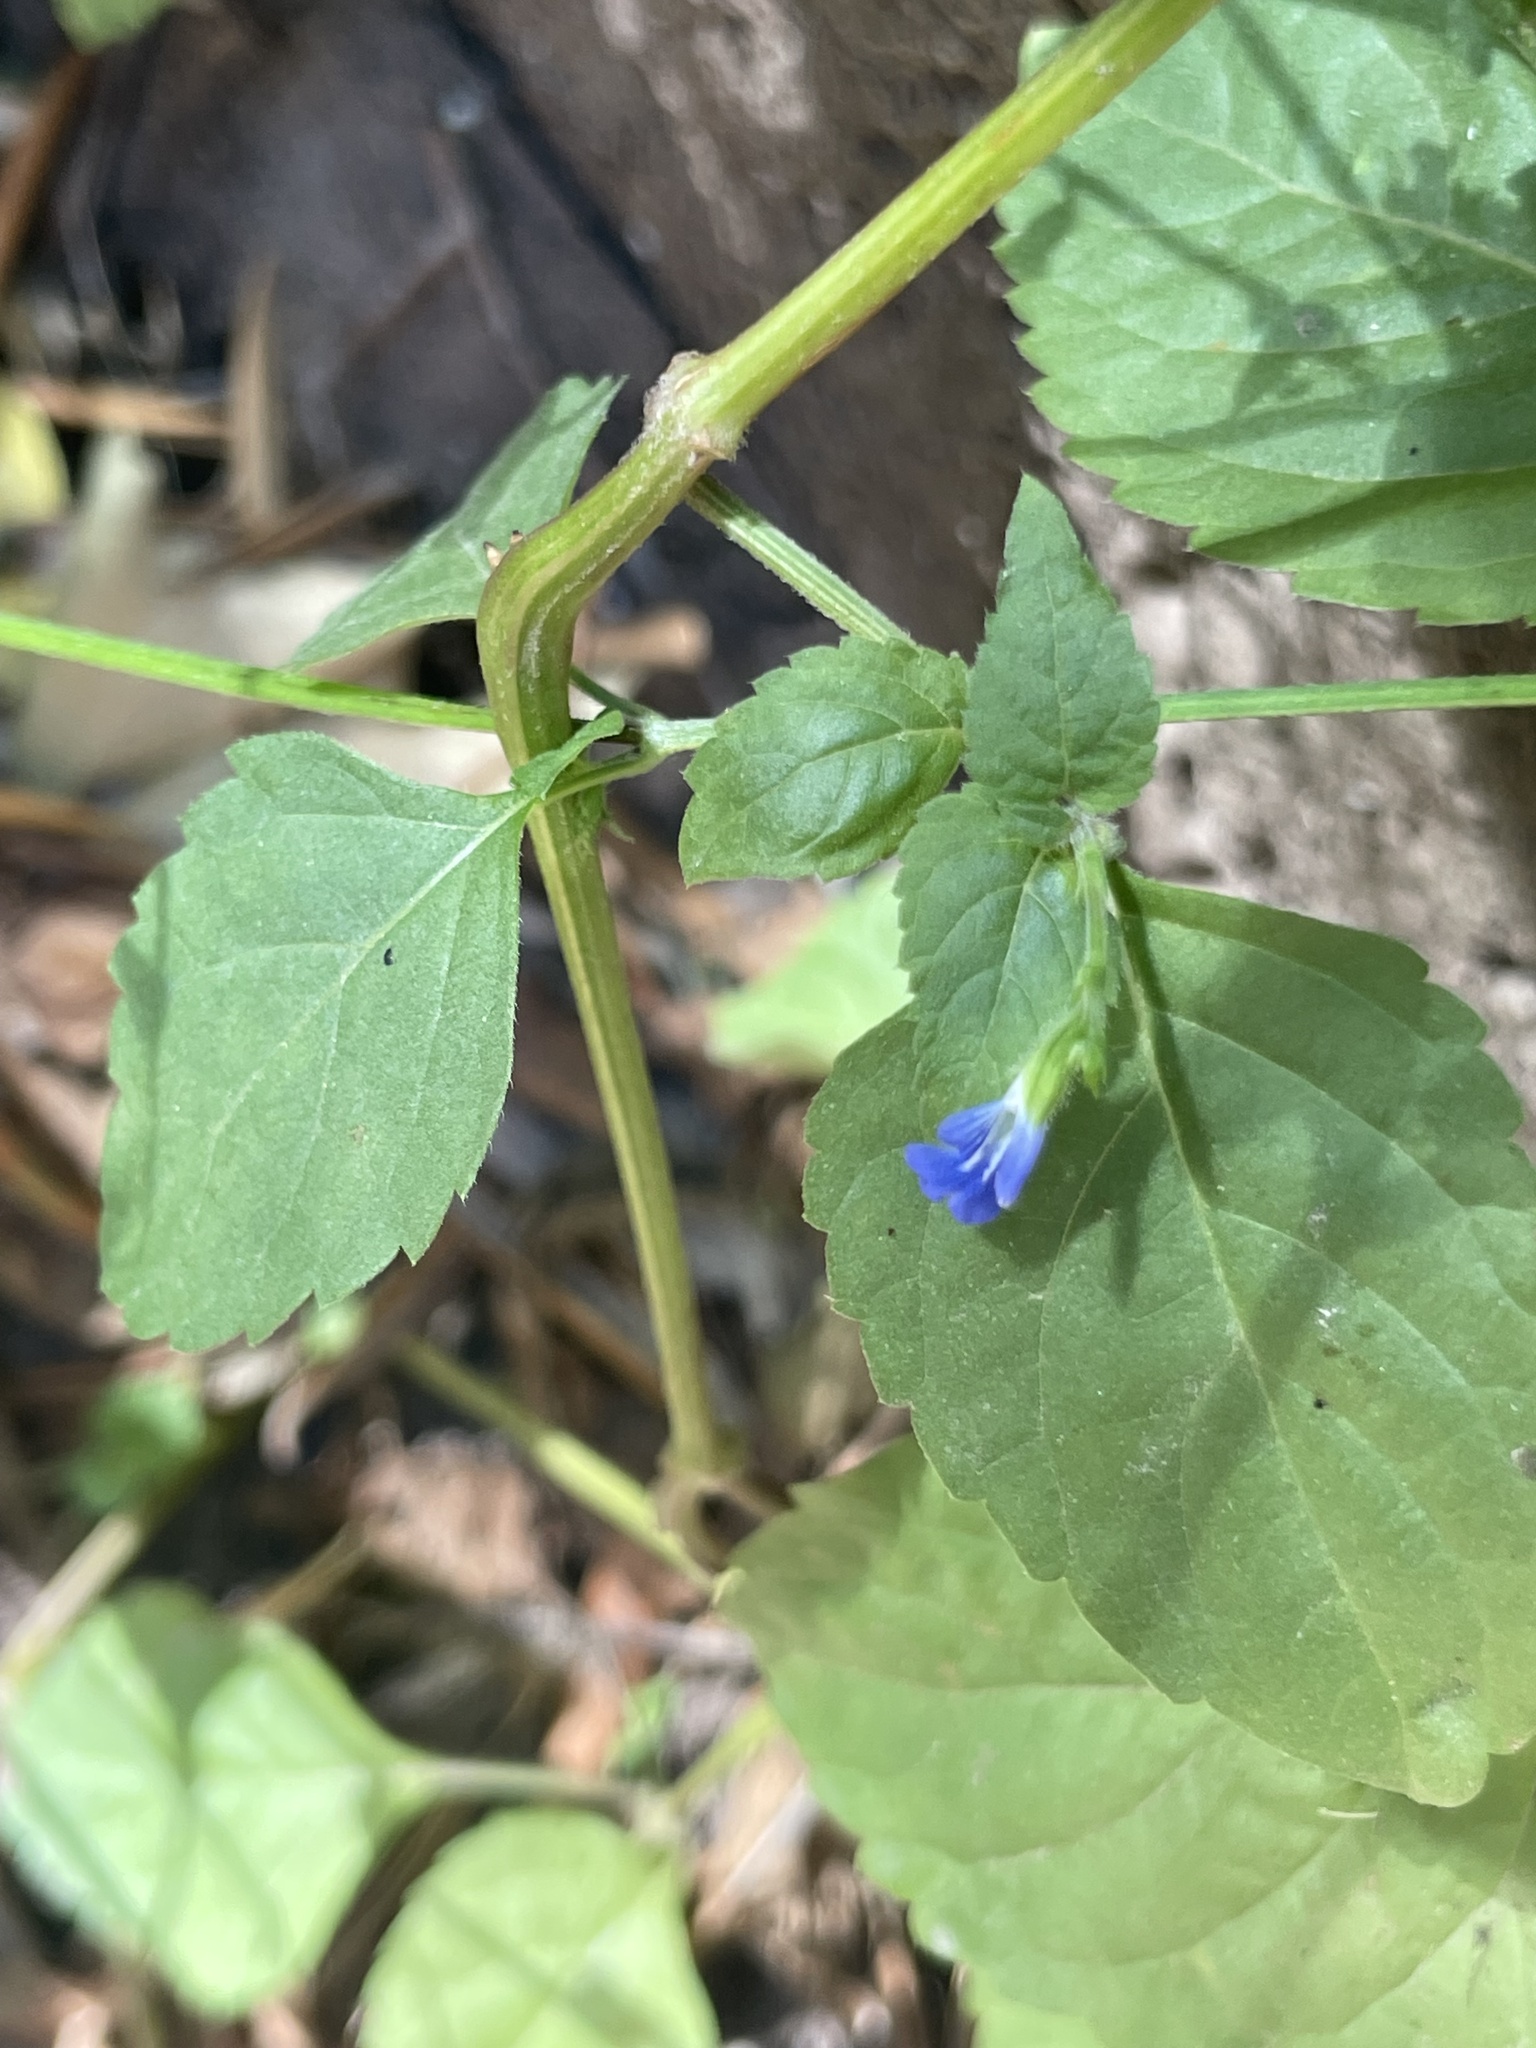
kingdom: Plantae
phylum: Tracheophyta
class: Magnoliopsida
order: Lamiales
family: Lamiaceae
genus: Salvia
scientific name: Salvia misella
